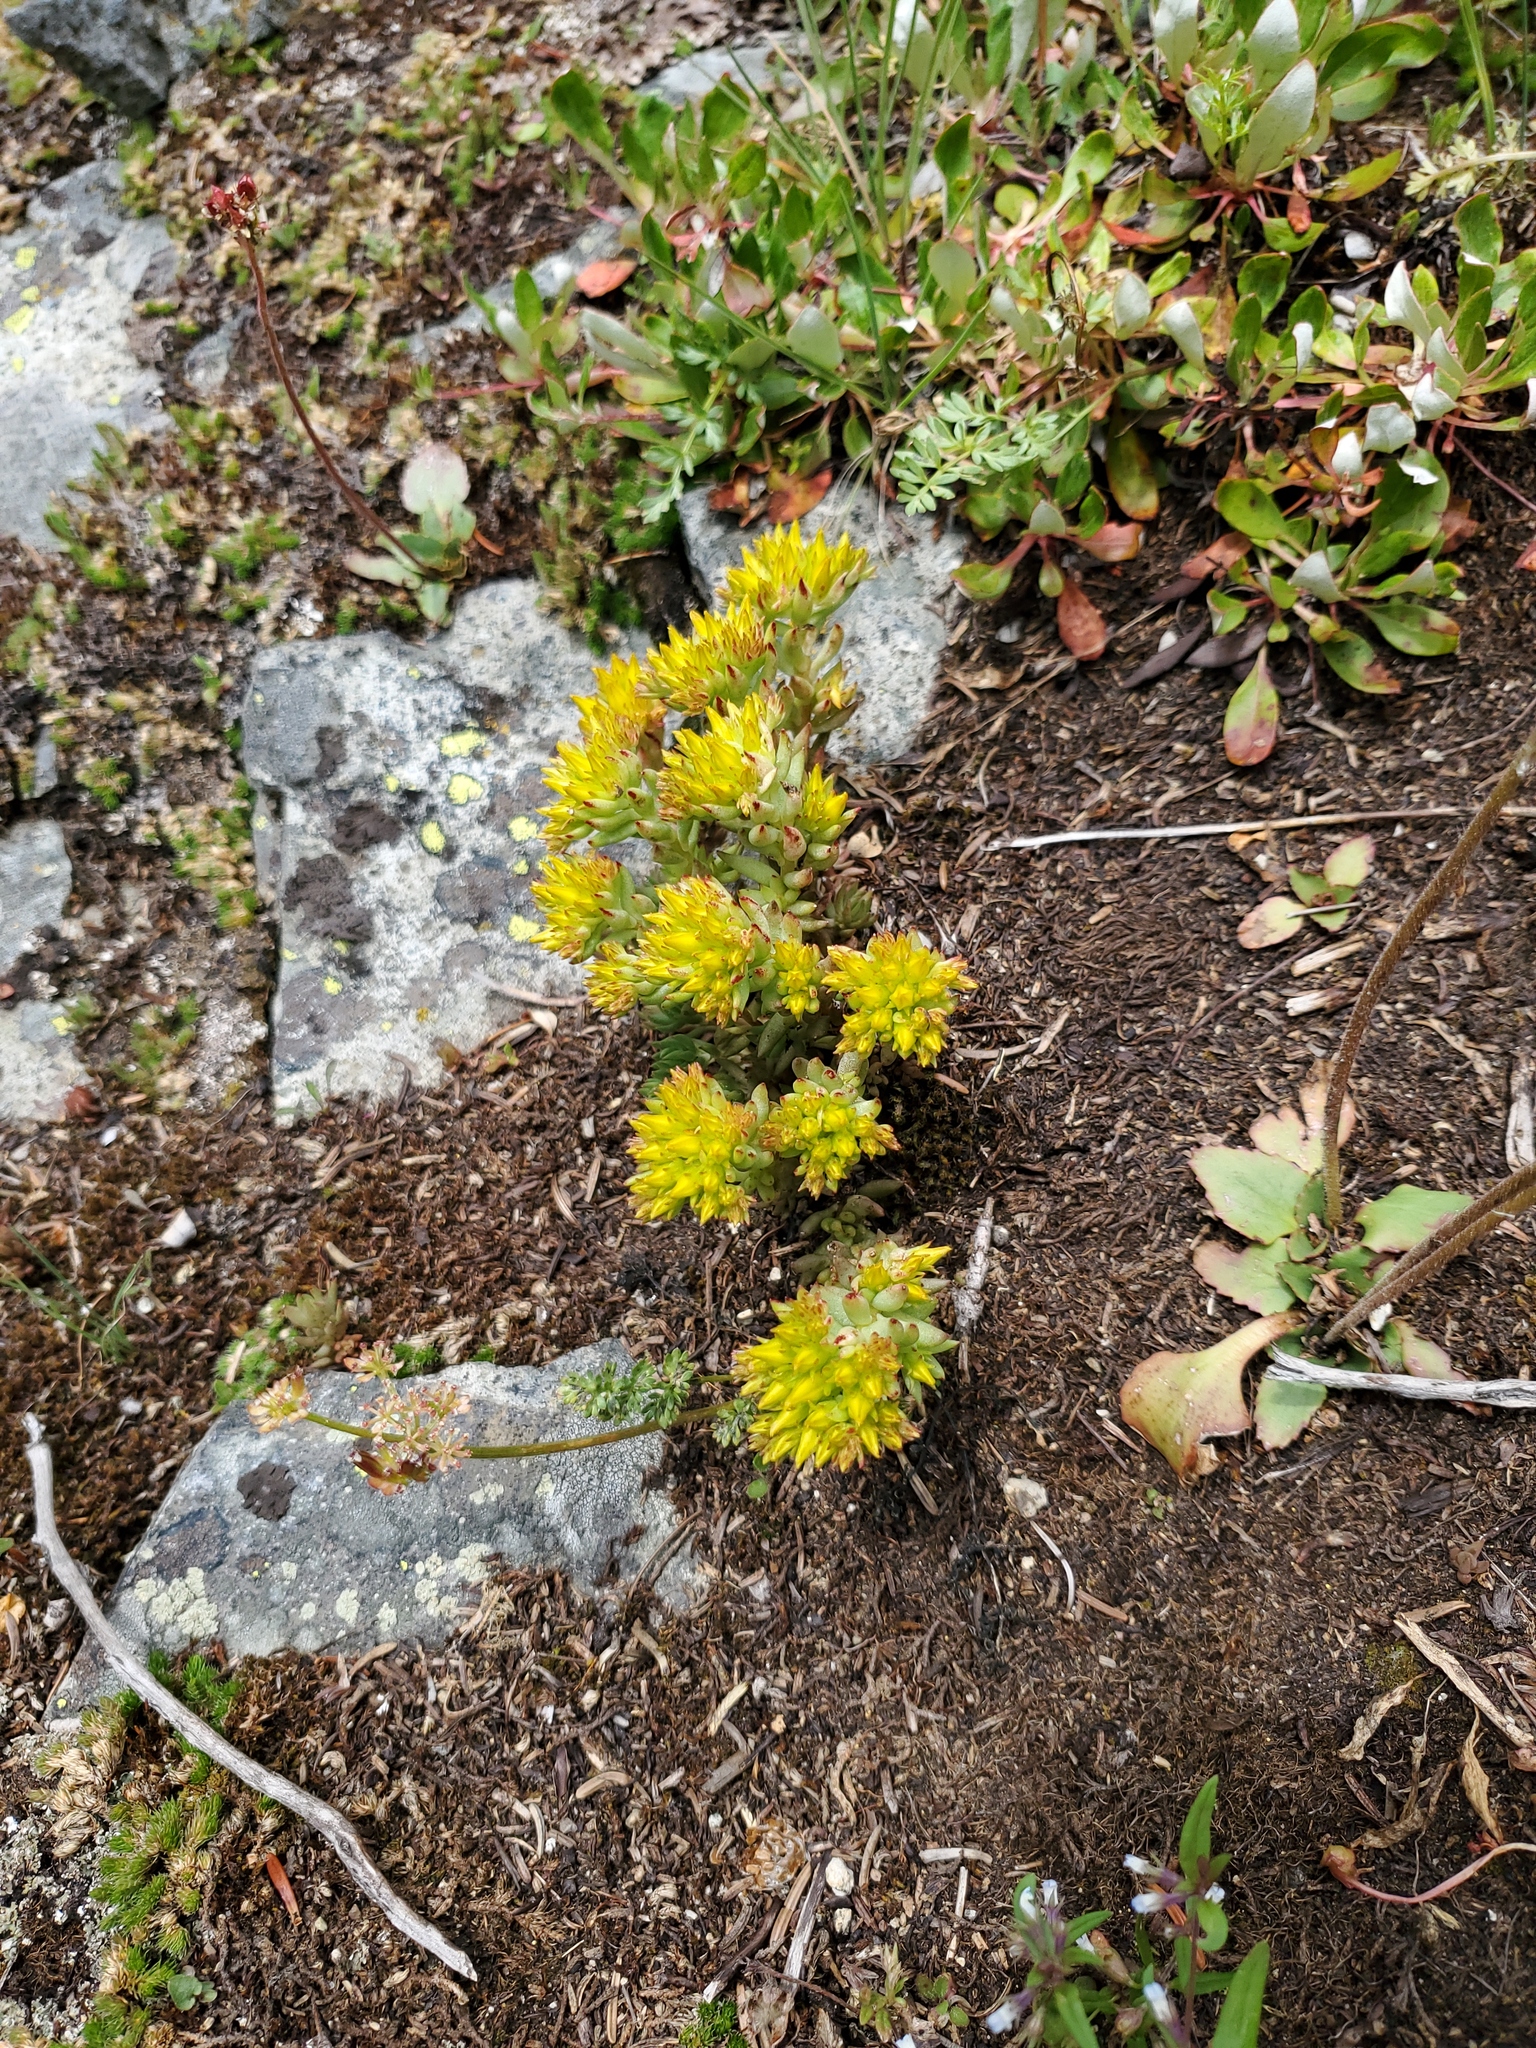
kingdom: Plantae
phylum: Tracheophyta
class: Magnoliopsida
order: Saxifragales
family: Crassulaceae
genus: Sedum
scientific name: Sedum lanceolatum
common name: Common stonecrop
